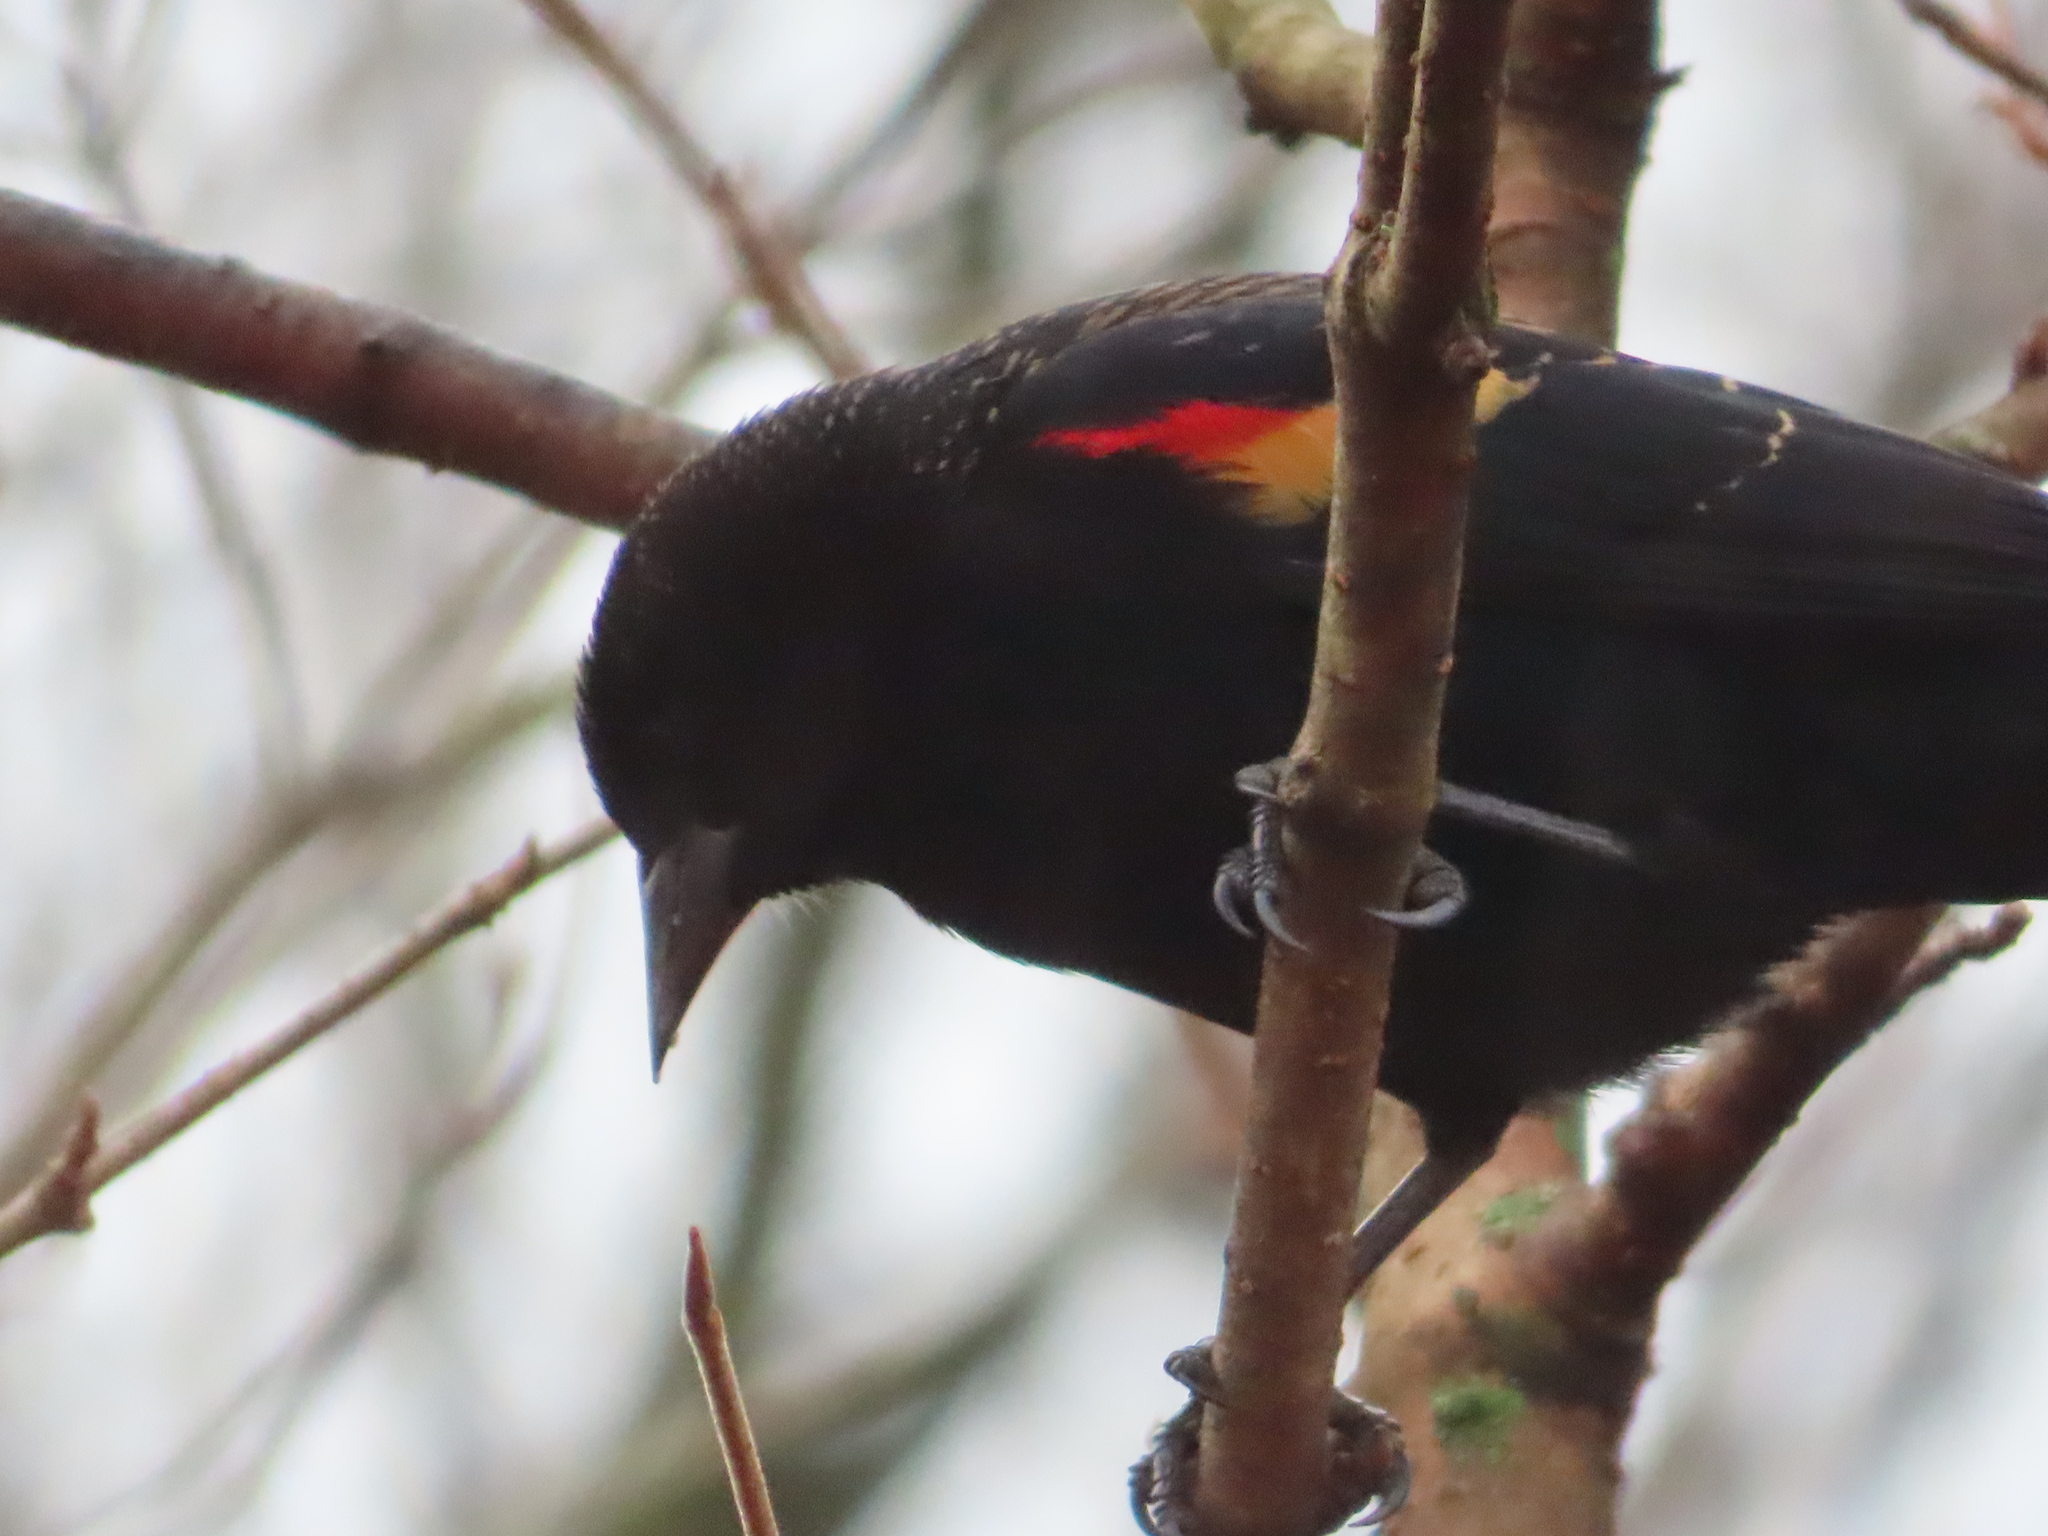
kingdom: Animalia
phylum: Chordata
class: Aves
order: Passeriformes
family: Icteridae
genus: Agelaius
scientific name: Agelaius phoeniceus
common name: Red-winged blackbird
